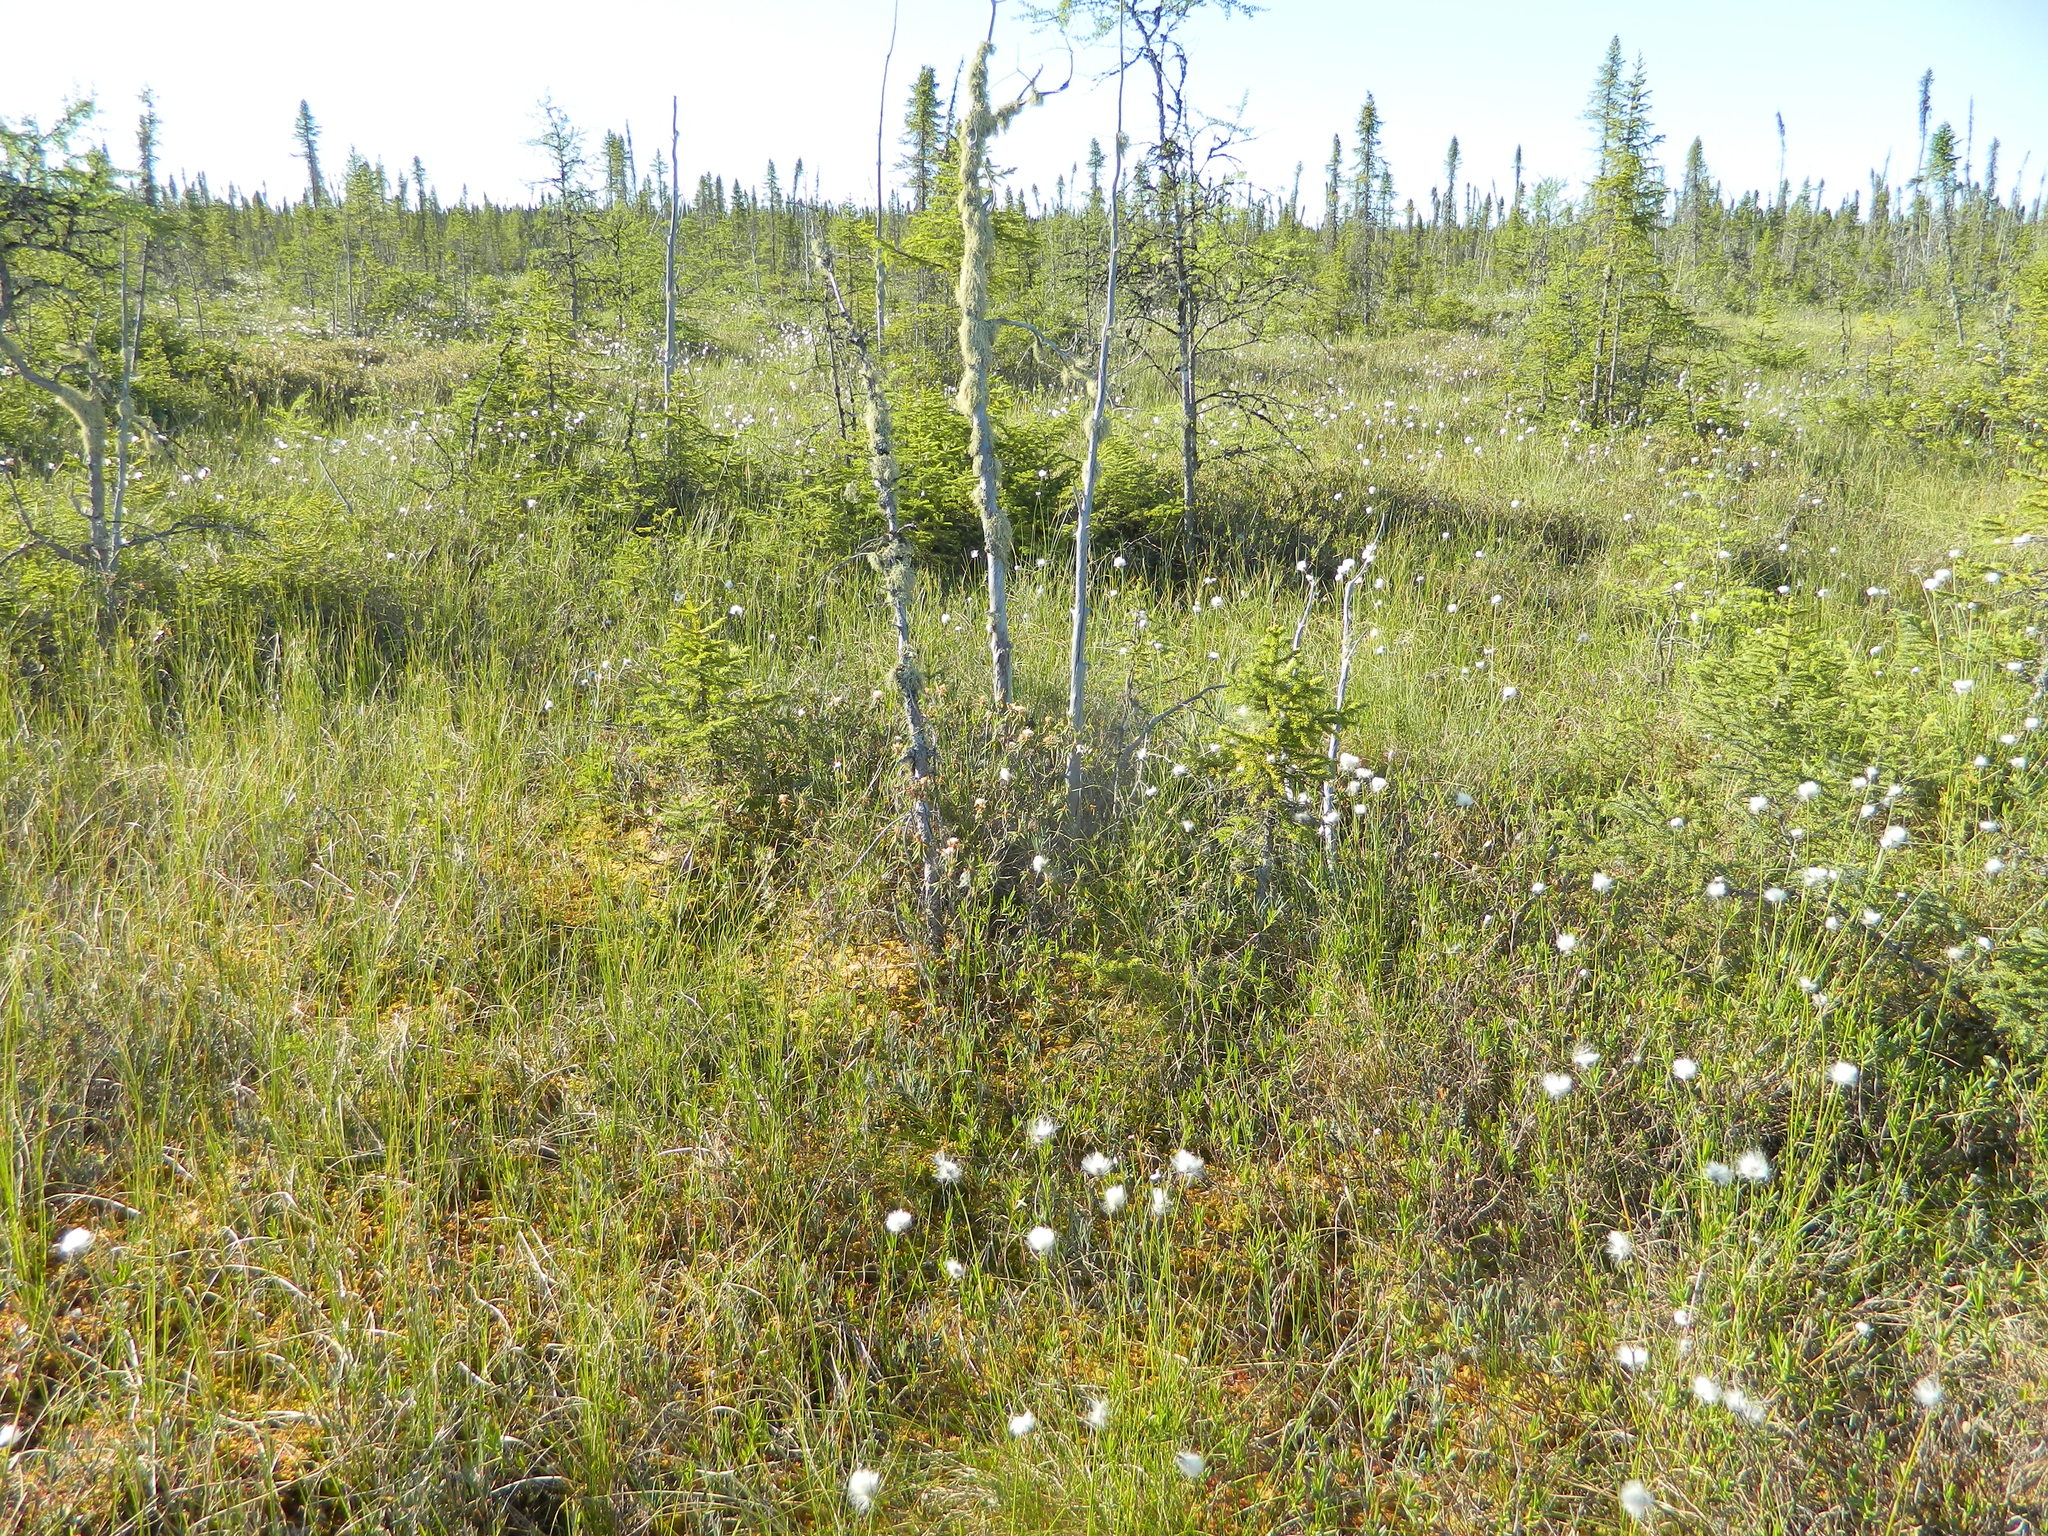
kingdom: Plantae
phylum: Tracheophyta
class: Liliopsida
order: Poales
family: Cyperaceae
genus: Eriophorum
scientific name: Eriophorum vaginatum
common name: Hare's-tail cottongrass
